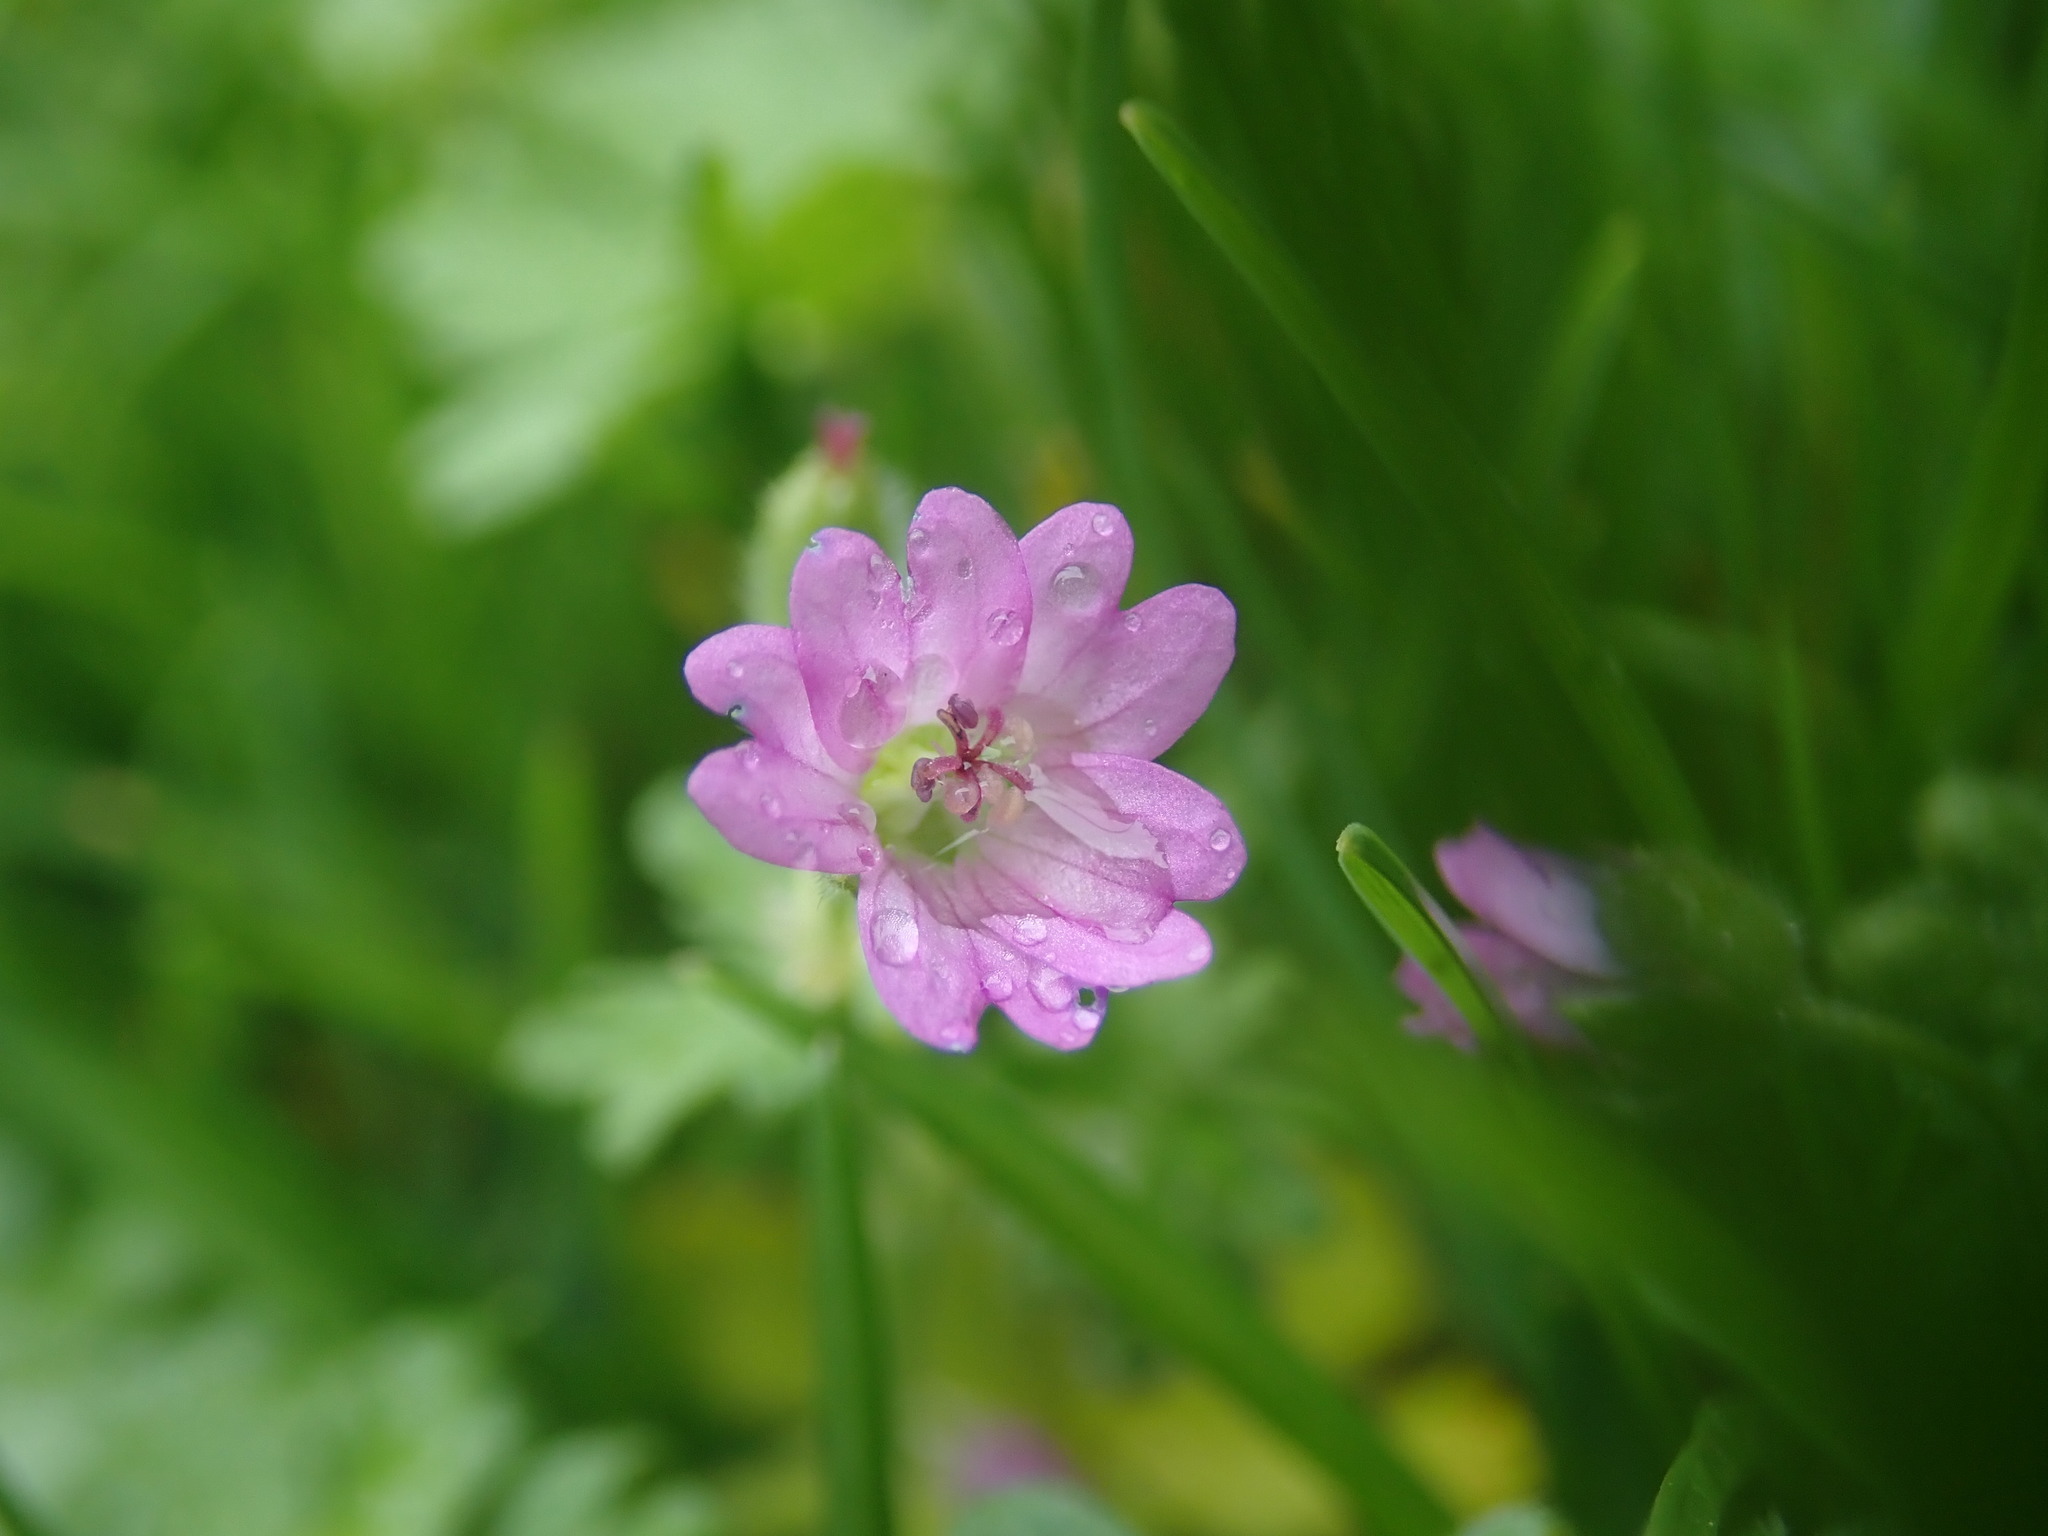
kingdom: Plantae
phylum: Tracheophyta
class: Magnoliopsida
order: Geraniales
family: Geraniaceae
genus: Geranium
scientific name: Geranium molle
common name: Dove's-foot crane's-bill
